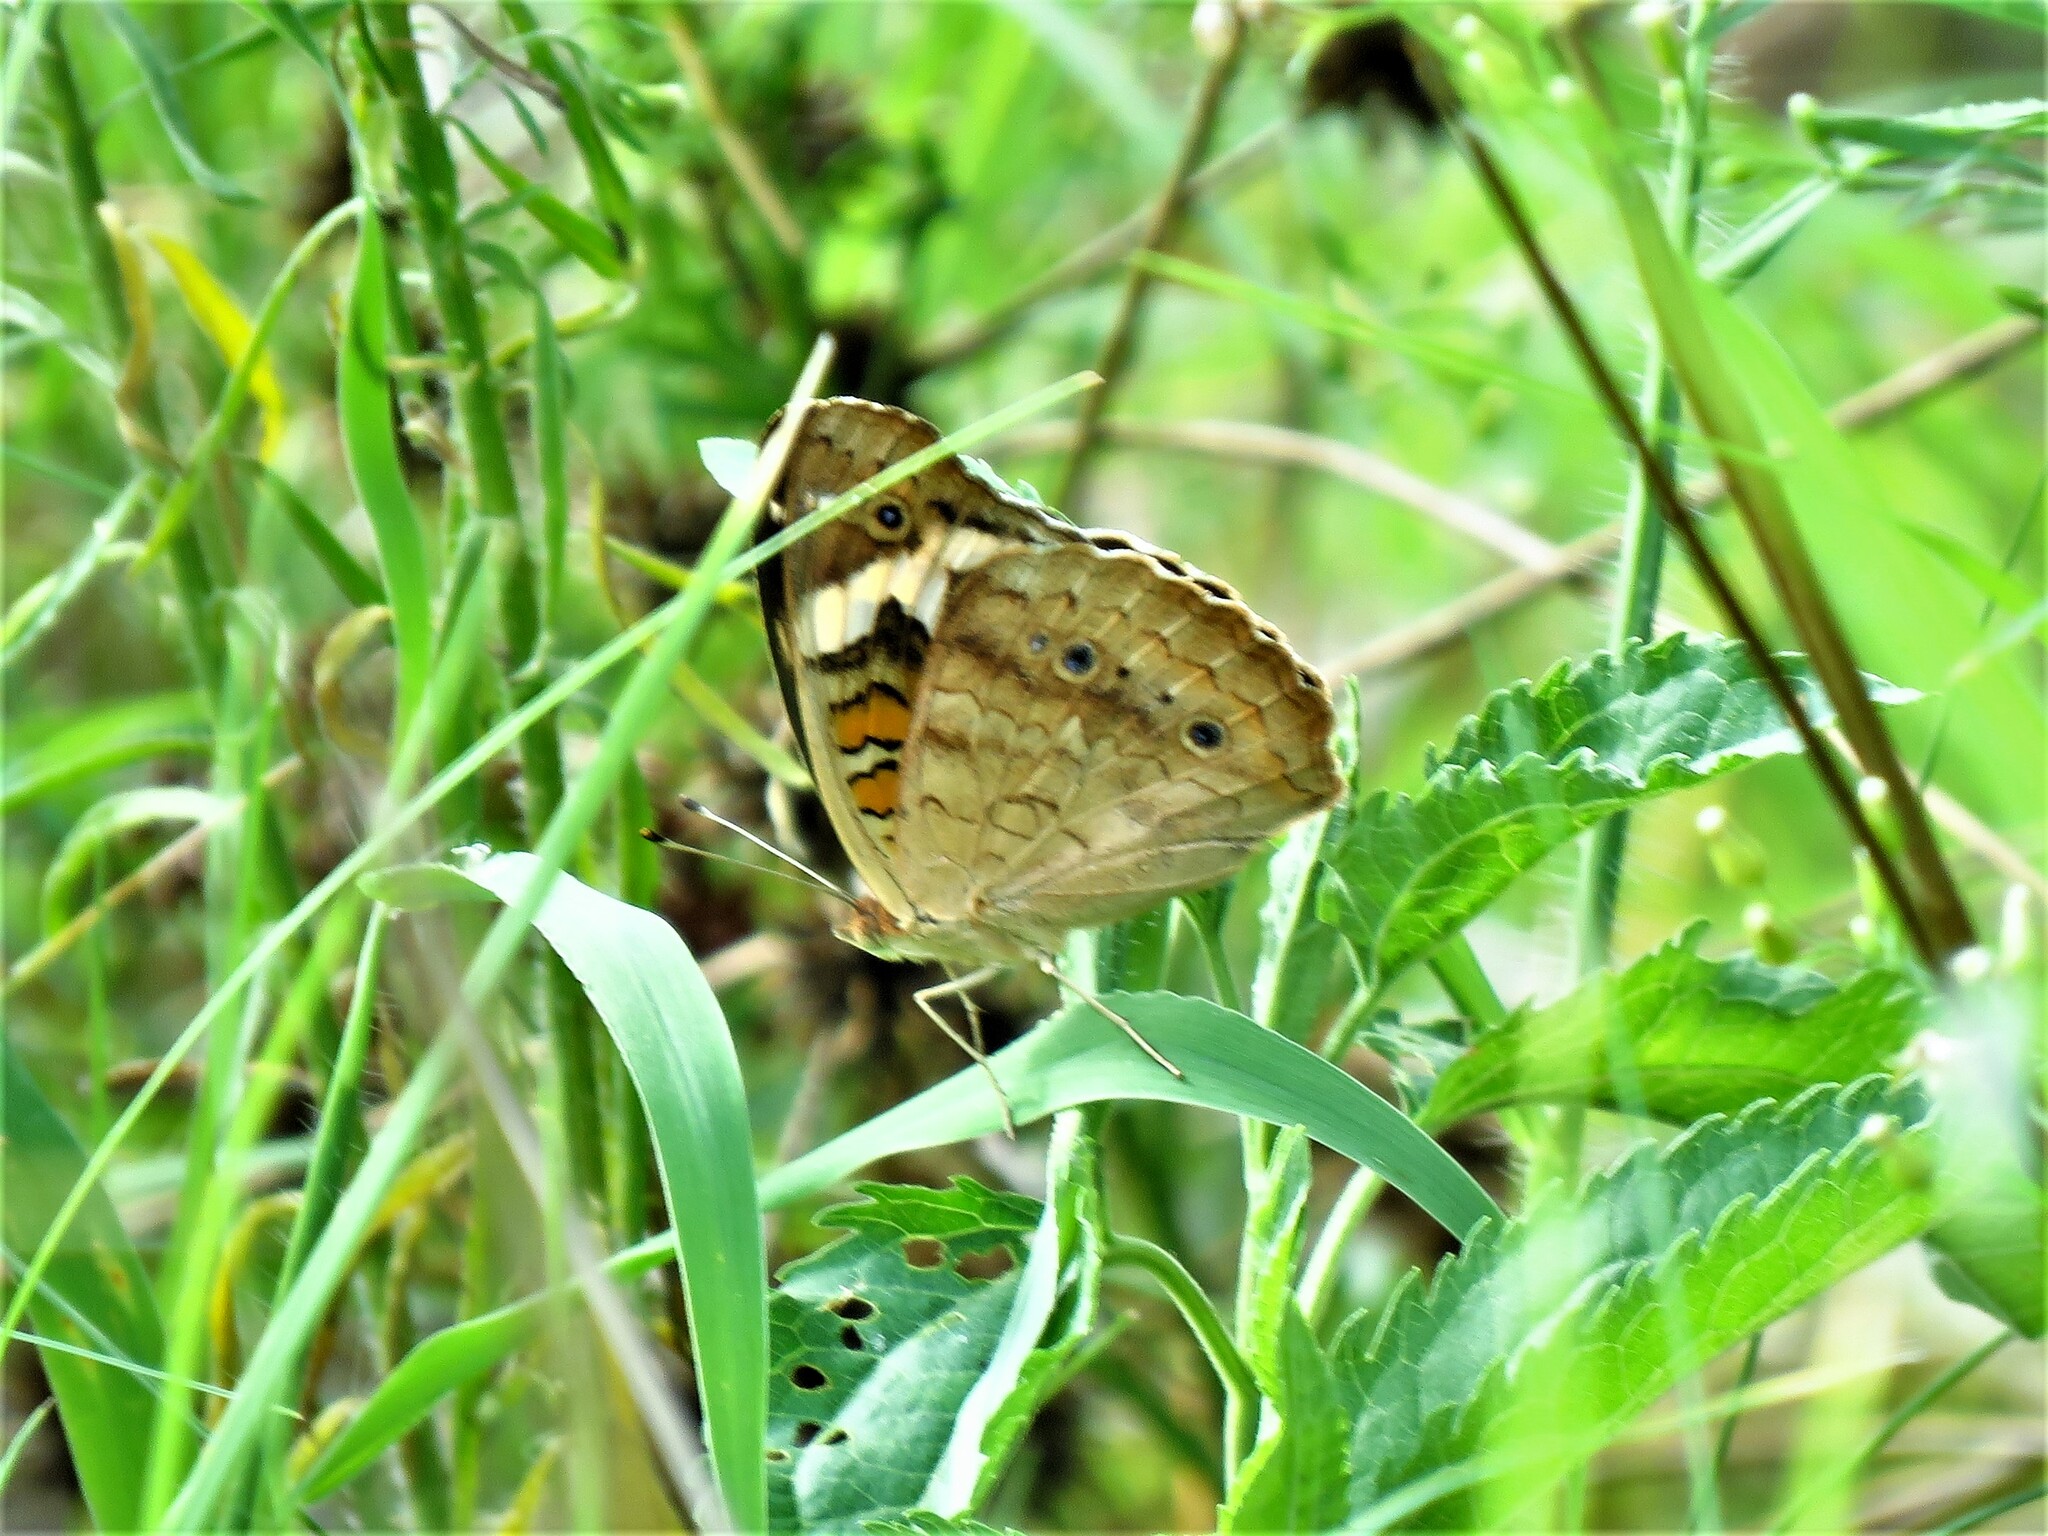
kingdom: Animalia
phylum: Arthropoda
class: Insecta
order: Lepidoptera
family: Nymphalidae
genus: Junonia
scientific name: Junonia coenia
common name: Common buckeye
